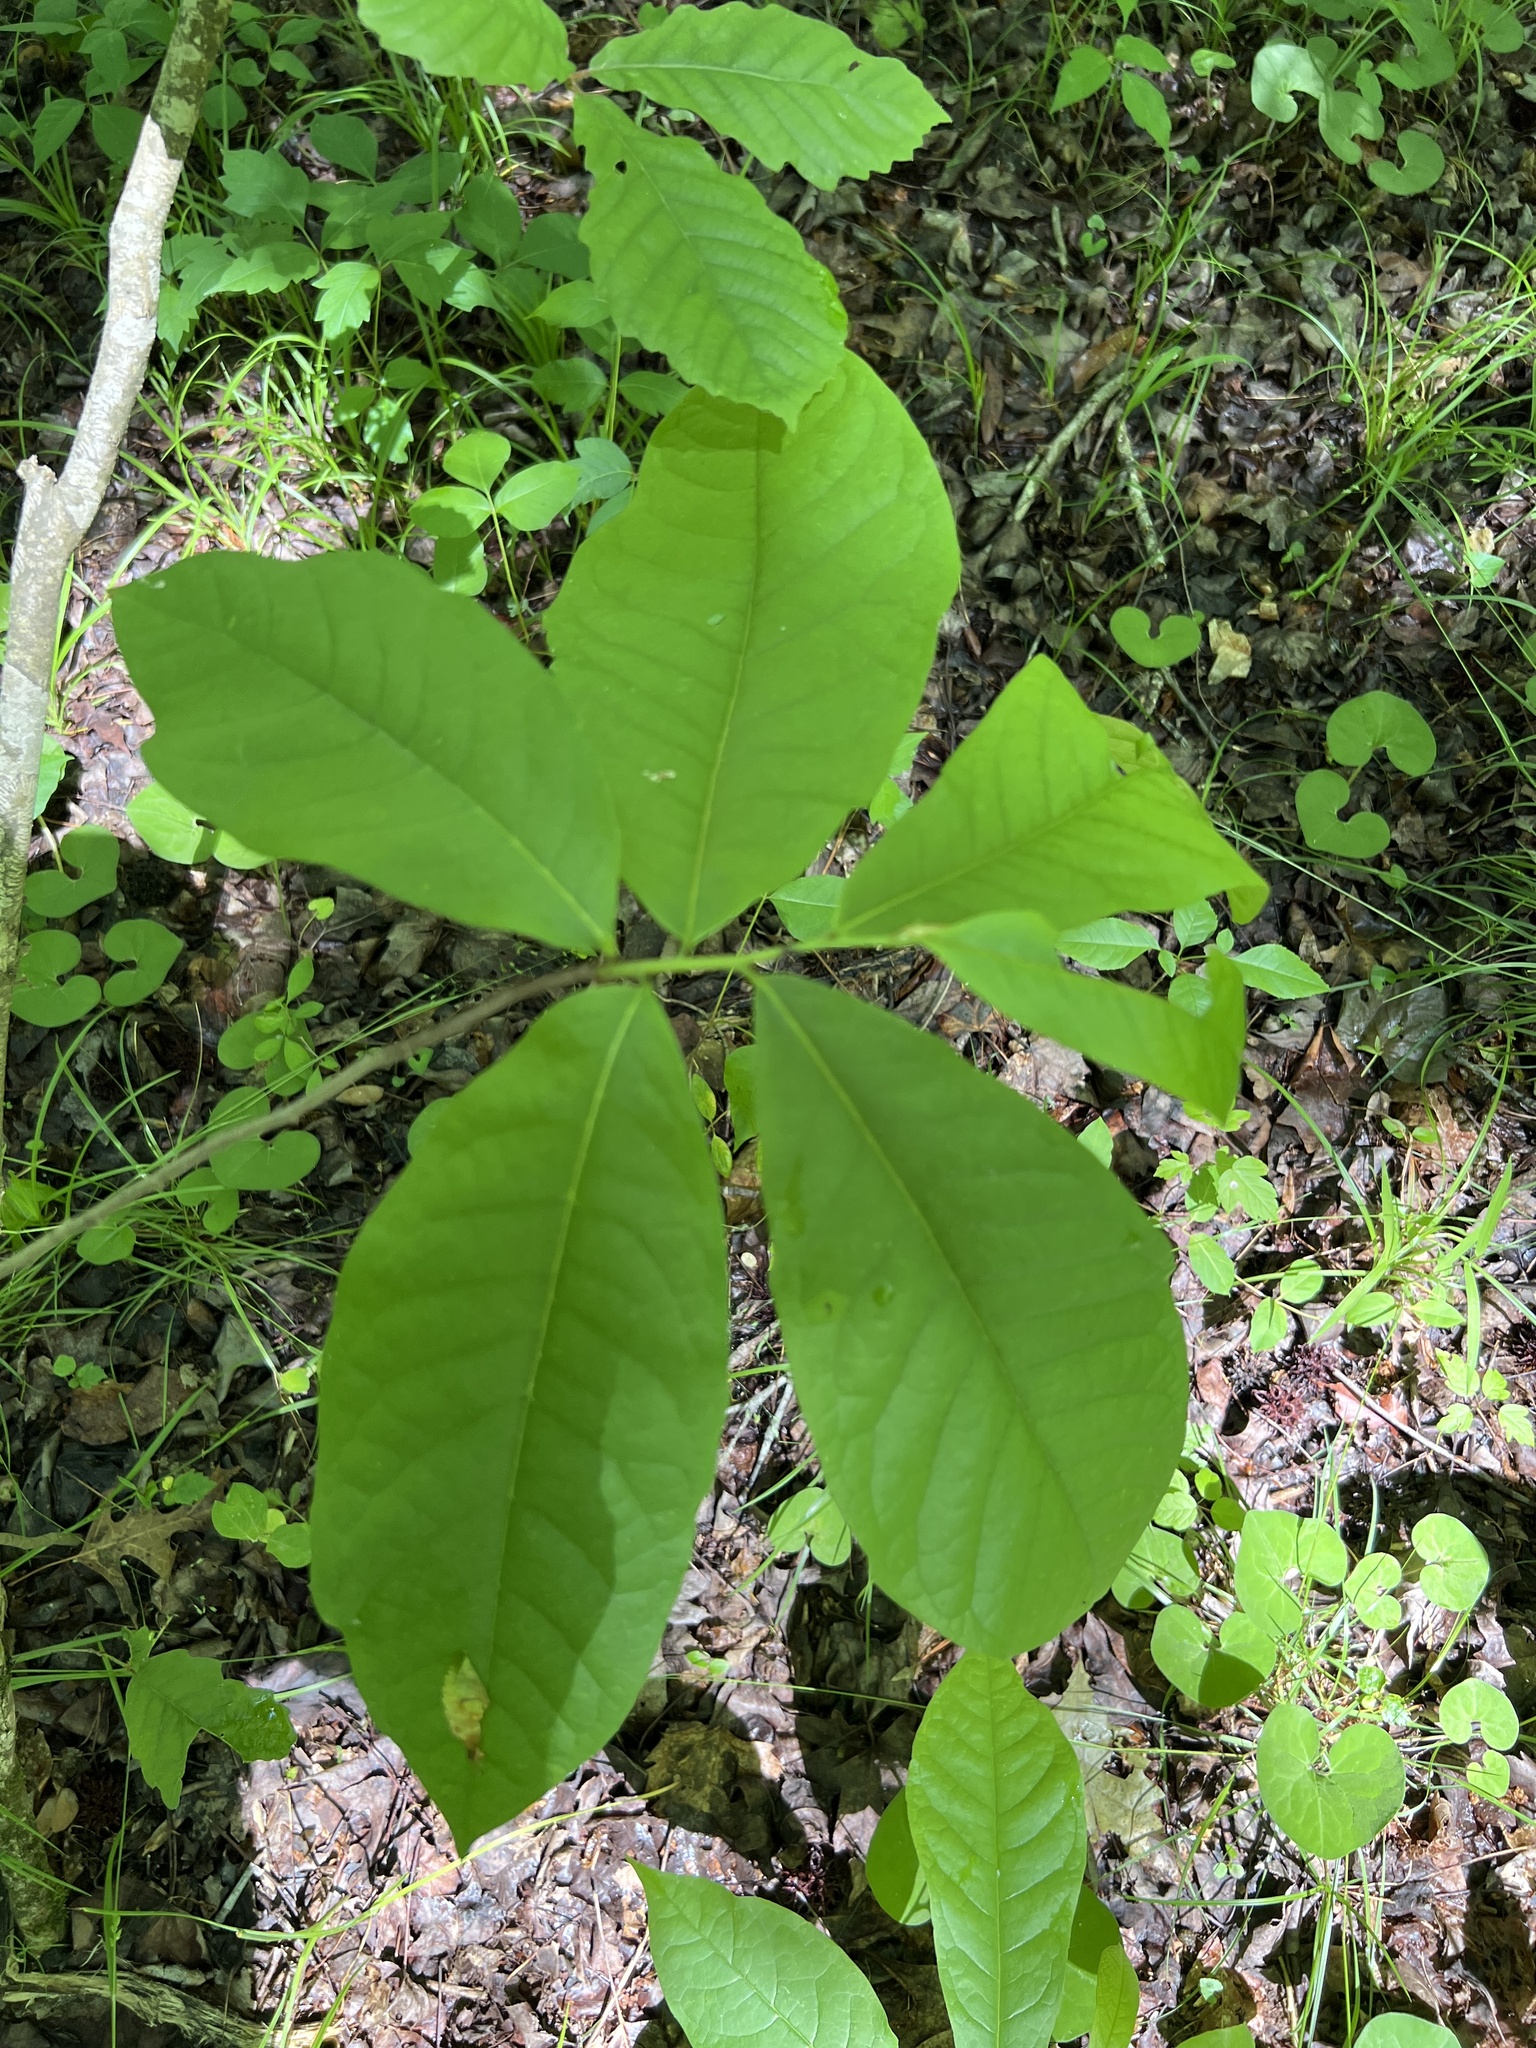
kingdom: Plantae
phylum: Tracheophyta
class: Magnoliopsida
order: Magnoliales
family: Annonaceae
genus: Asimina
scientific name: Asimina triloba
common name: Dog-banana
